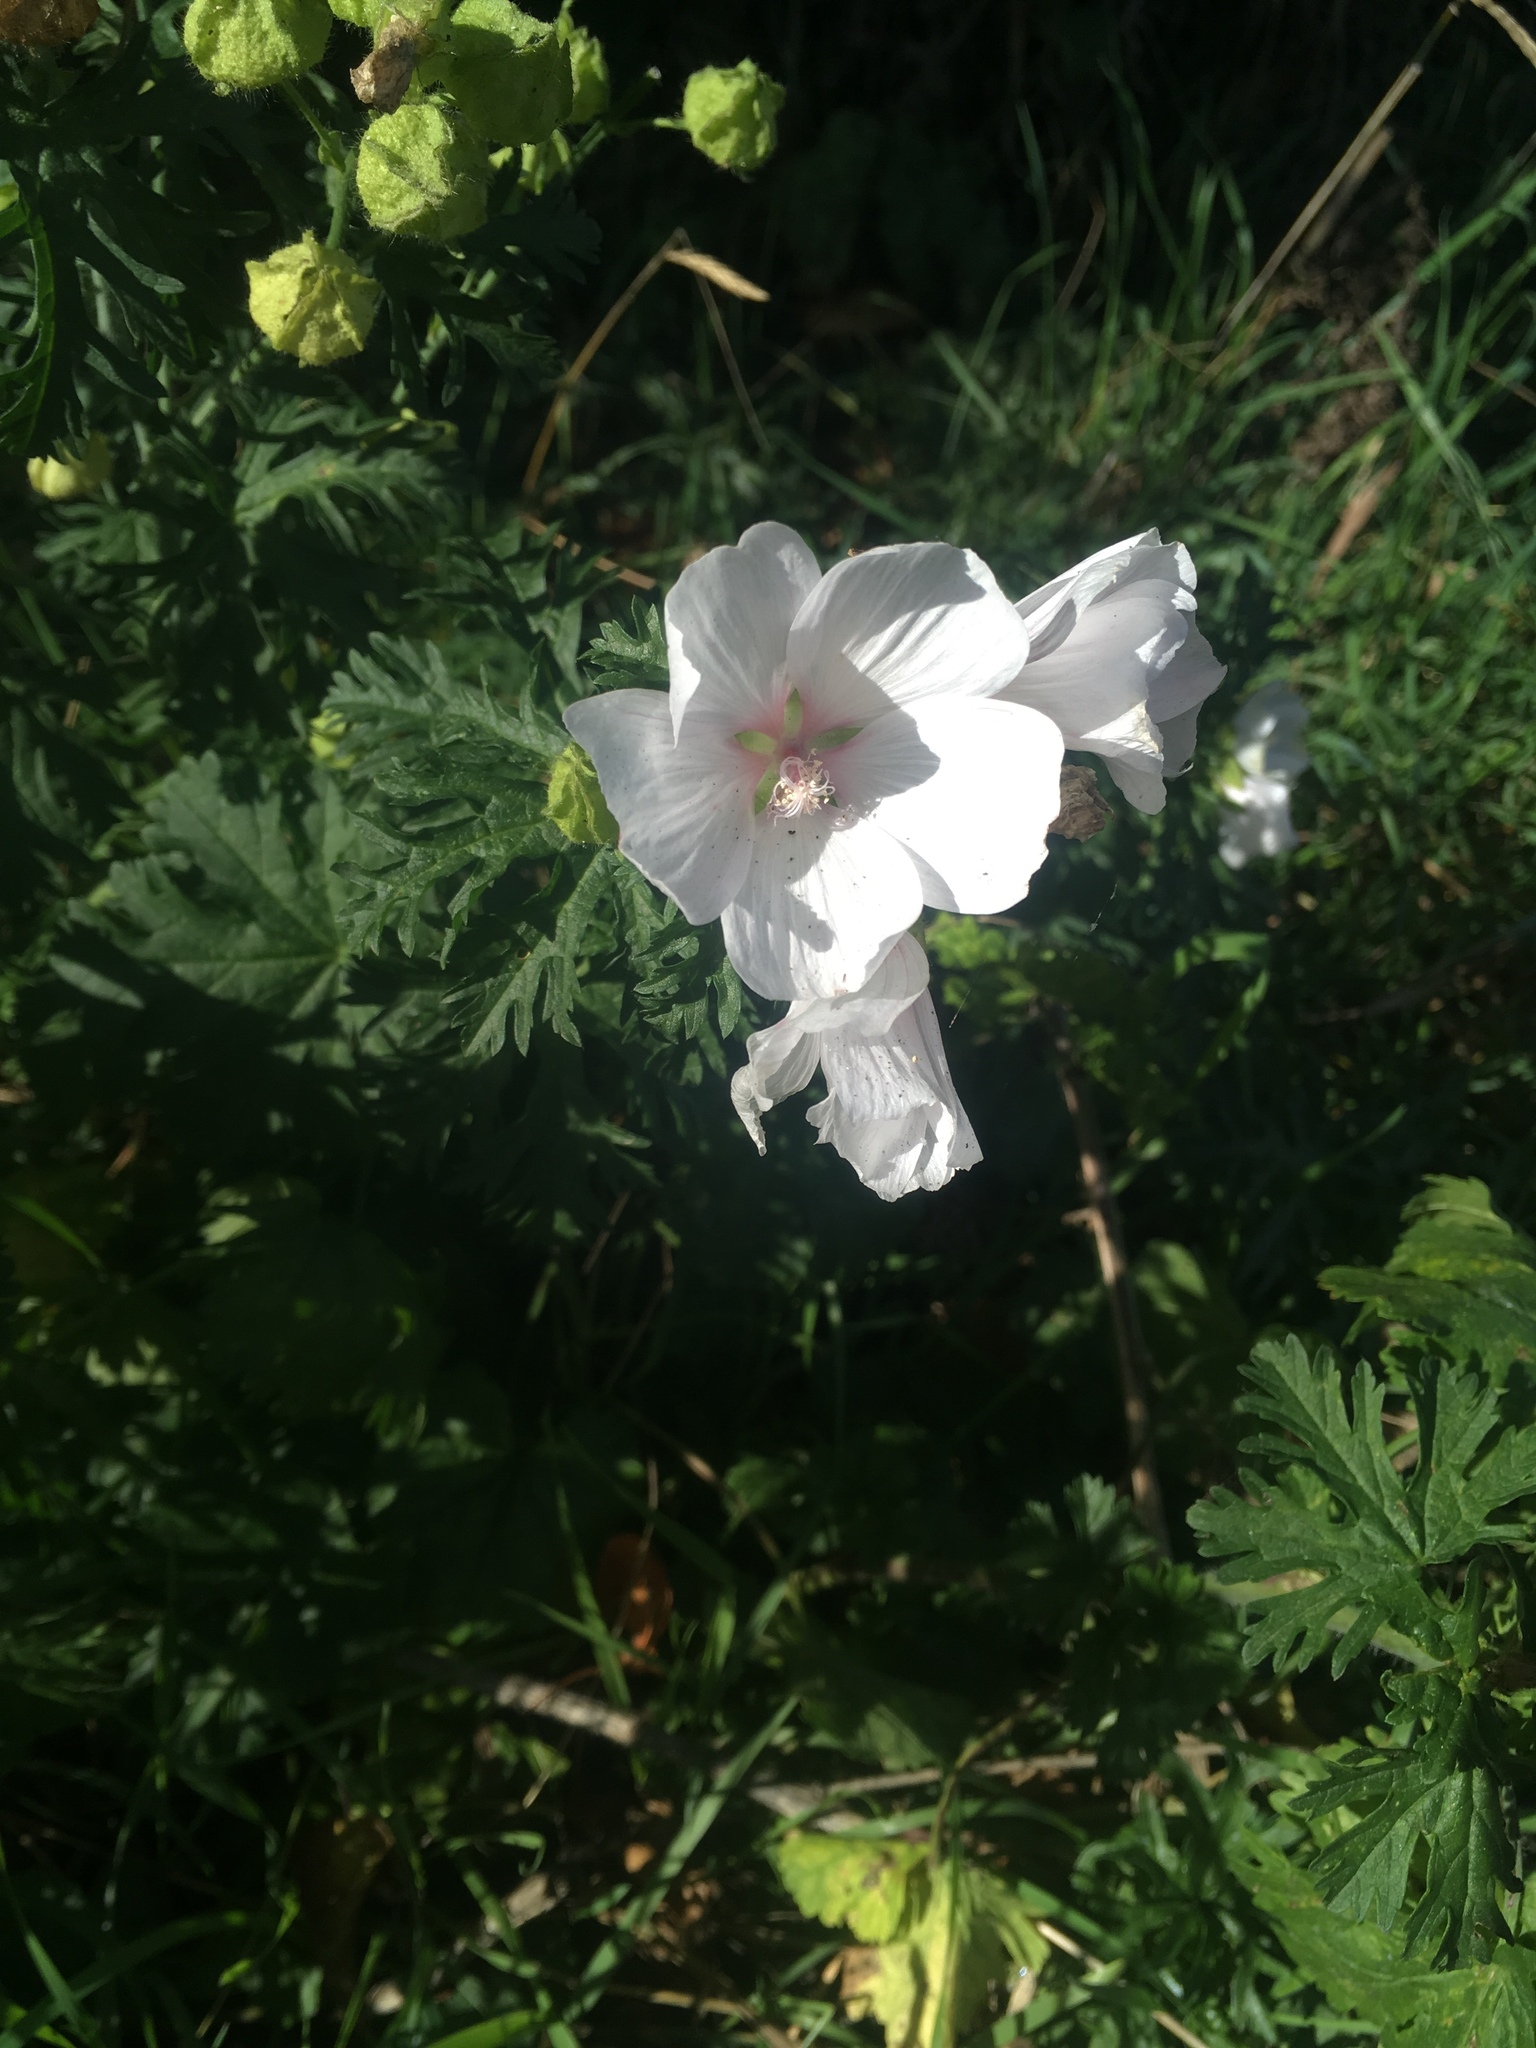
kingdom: Plantae
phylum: Tracheophyta
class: Magnoliopsida
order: Malvales
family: Malvaceae
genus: Malva
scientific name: Malva moschata
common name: Musk mallow
